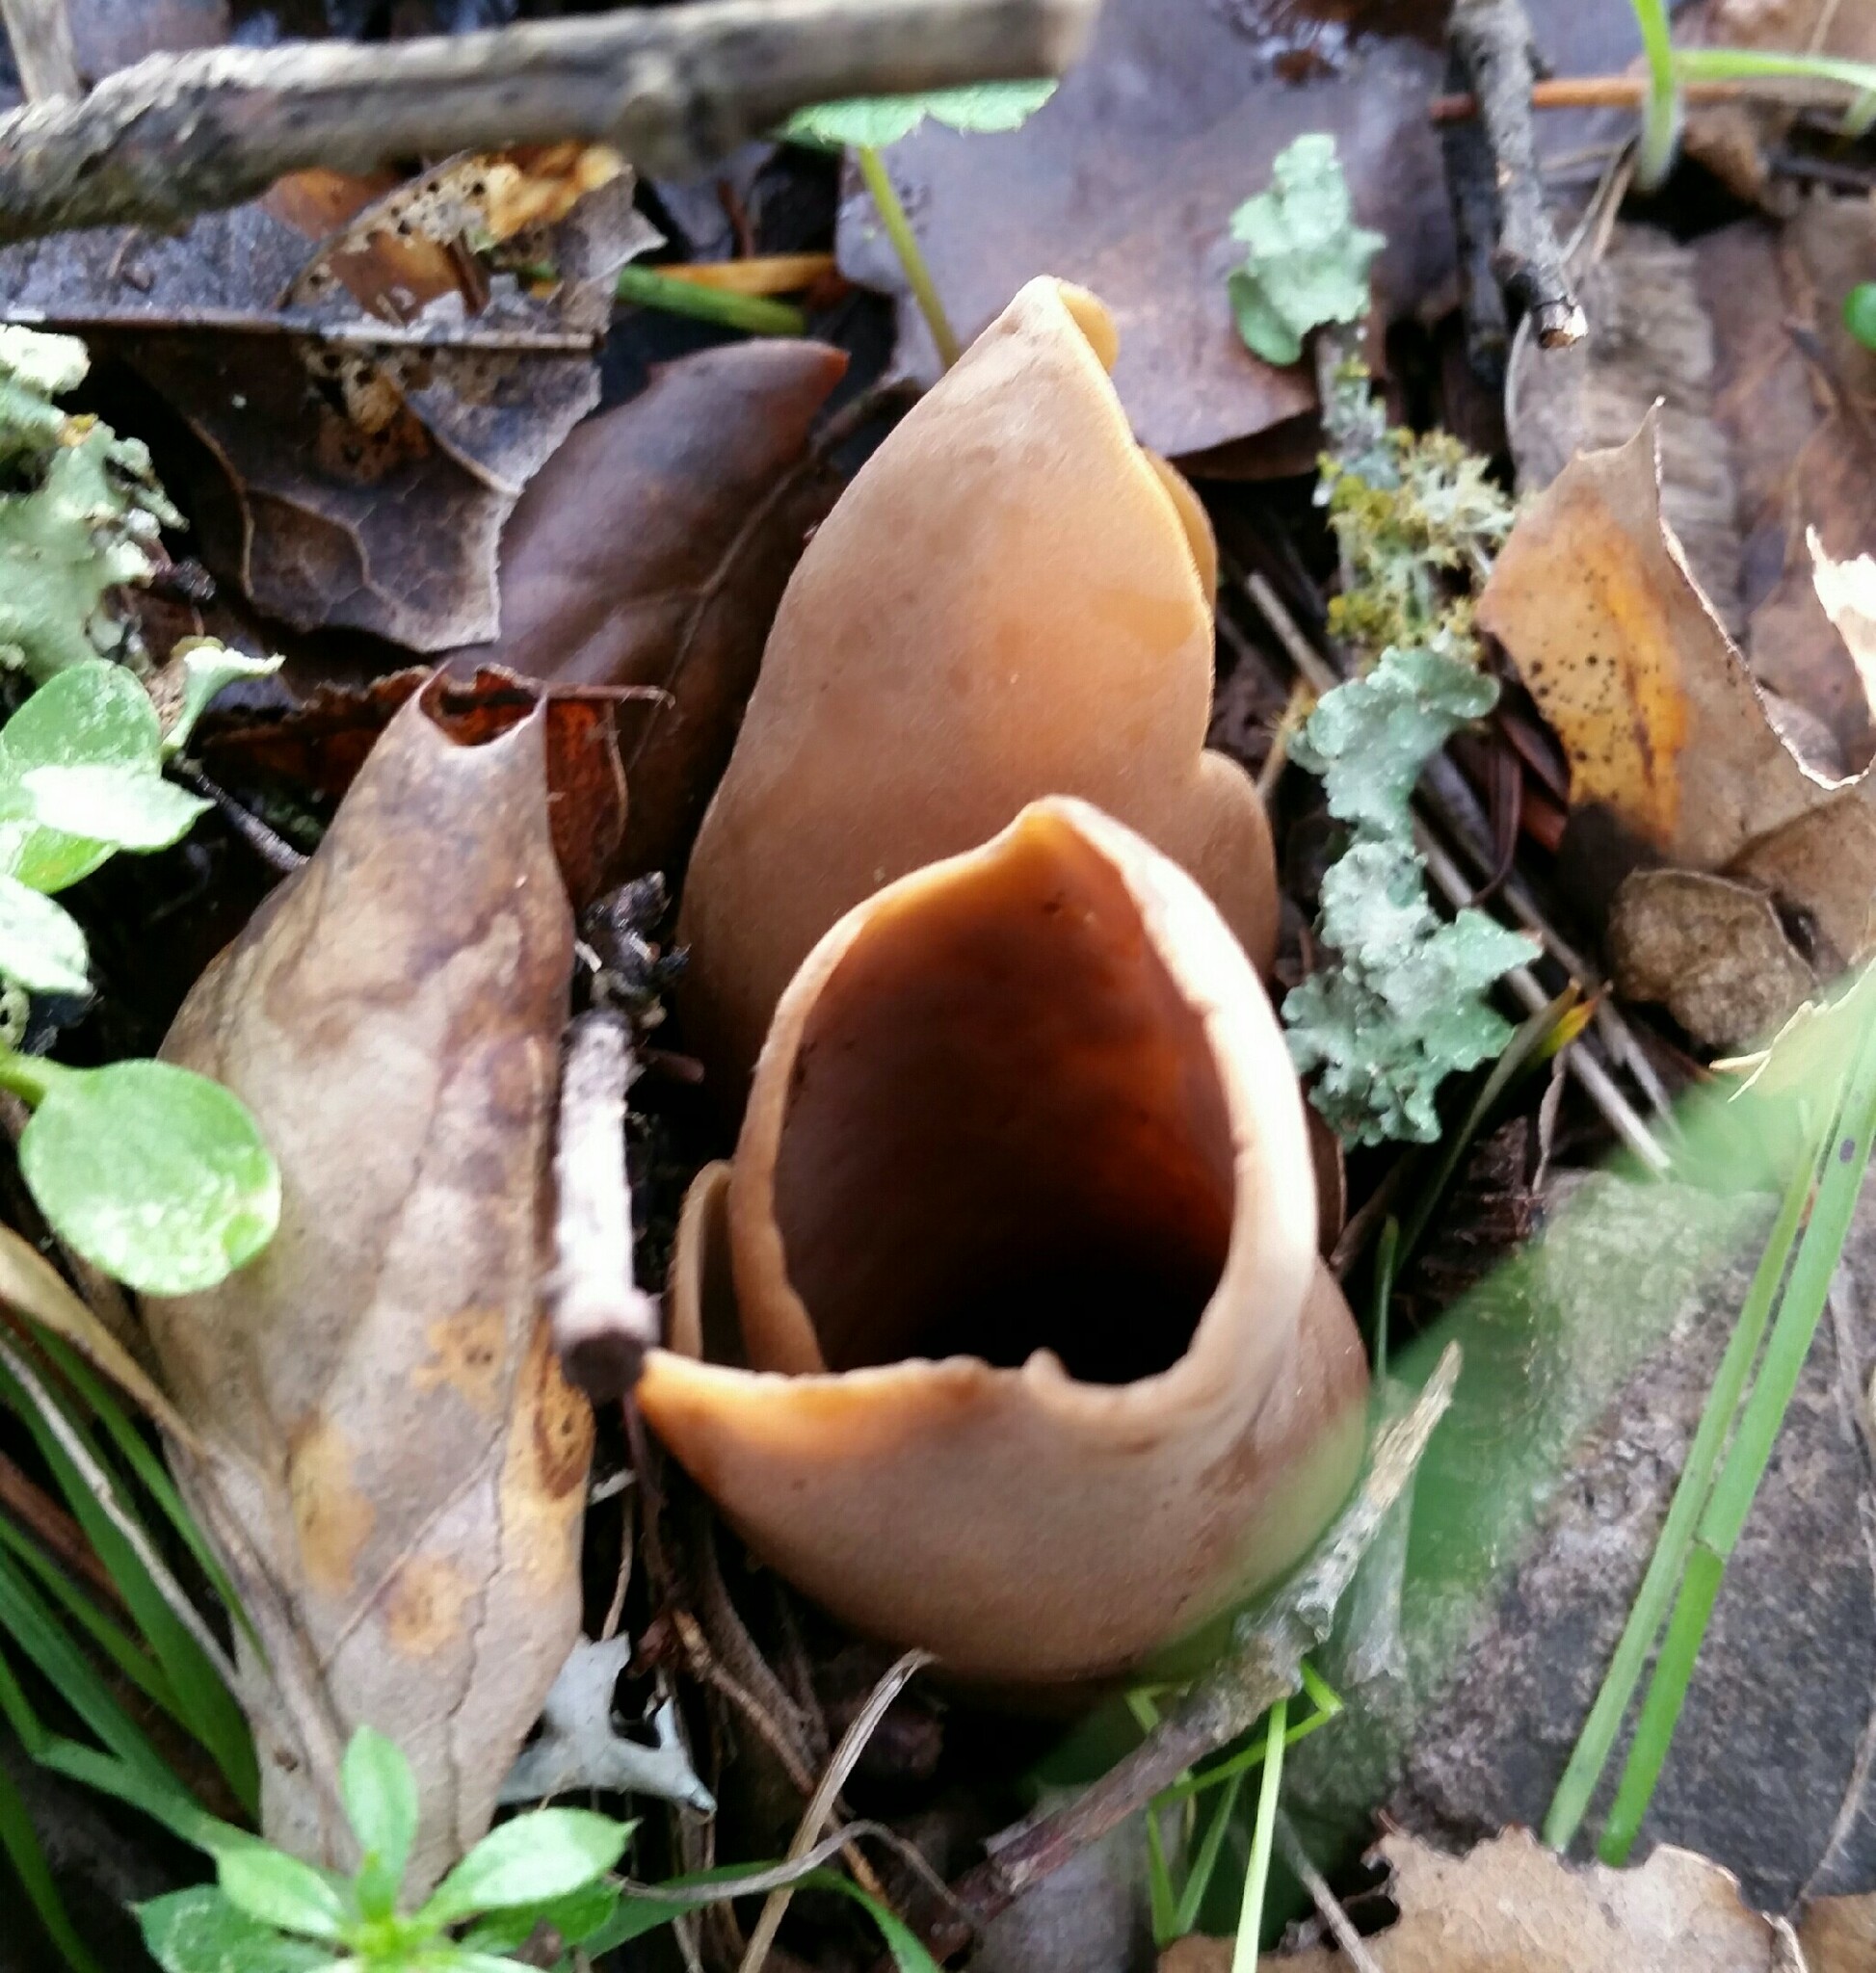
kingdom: Fungi
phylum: Ascomycota
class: Pezizomycetes
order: Pezizales
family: Pezizaceae
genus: Peziza
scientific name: Peziza varia
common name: Layered cup
